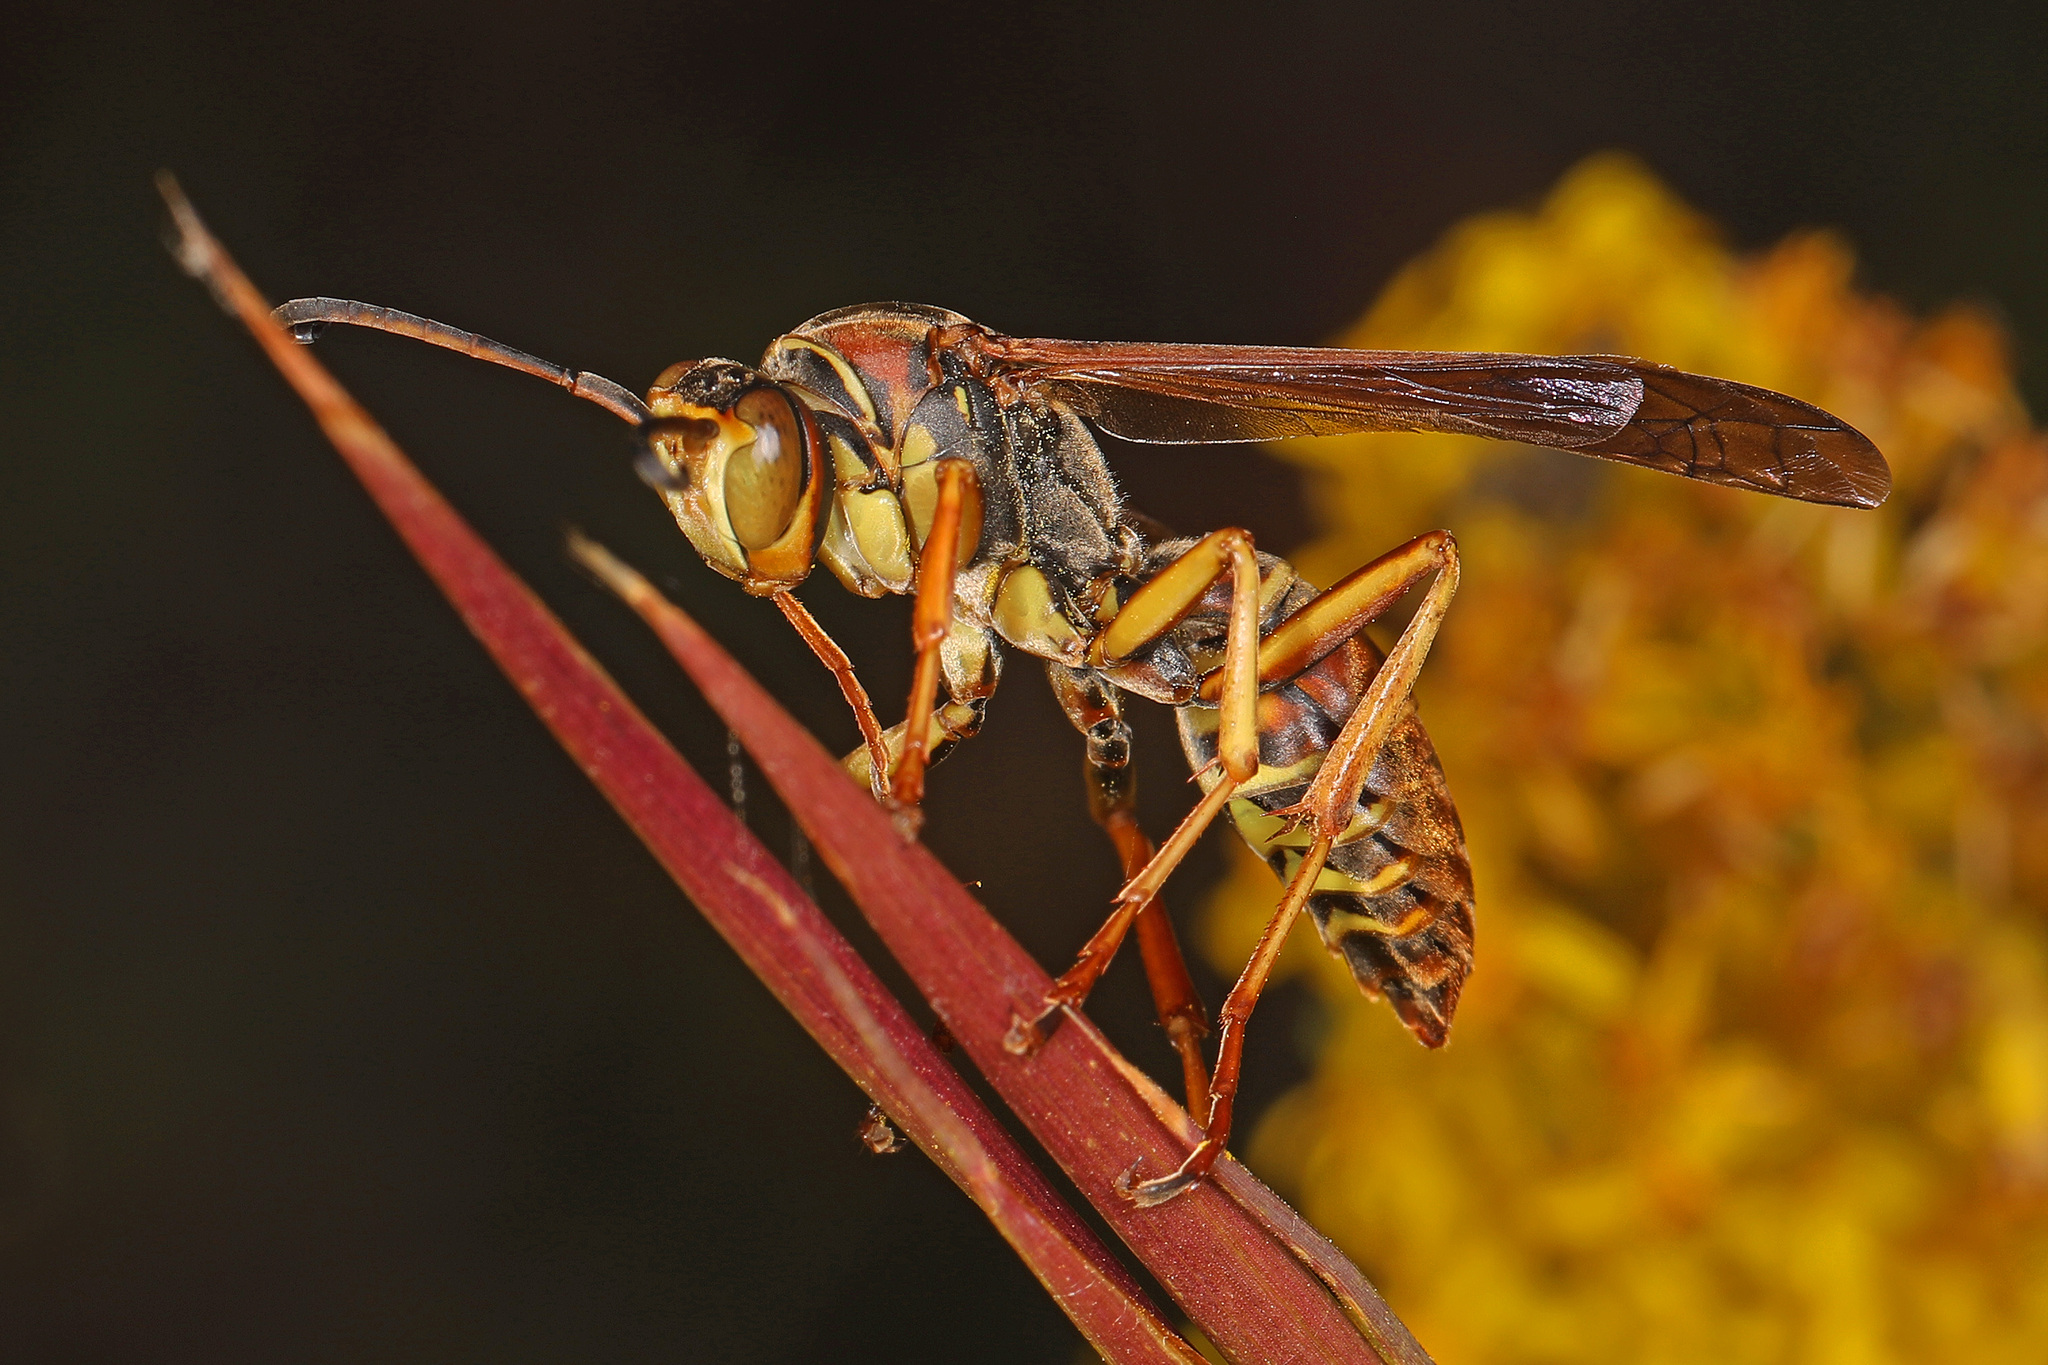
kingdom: Animalia
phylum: Arthropoda
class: Insecta
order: Hymenoptera
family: Eumenidae
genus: Polistes
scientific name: Polistes fuscatus
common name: Dark paper wasp
